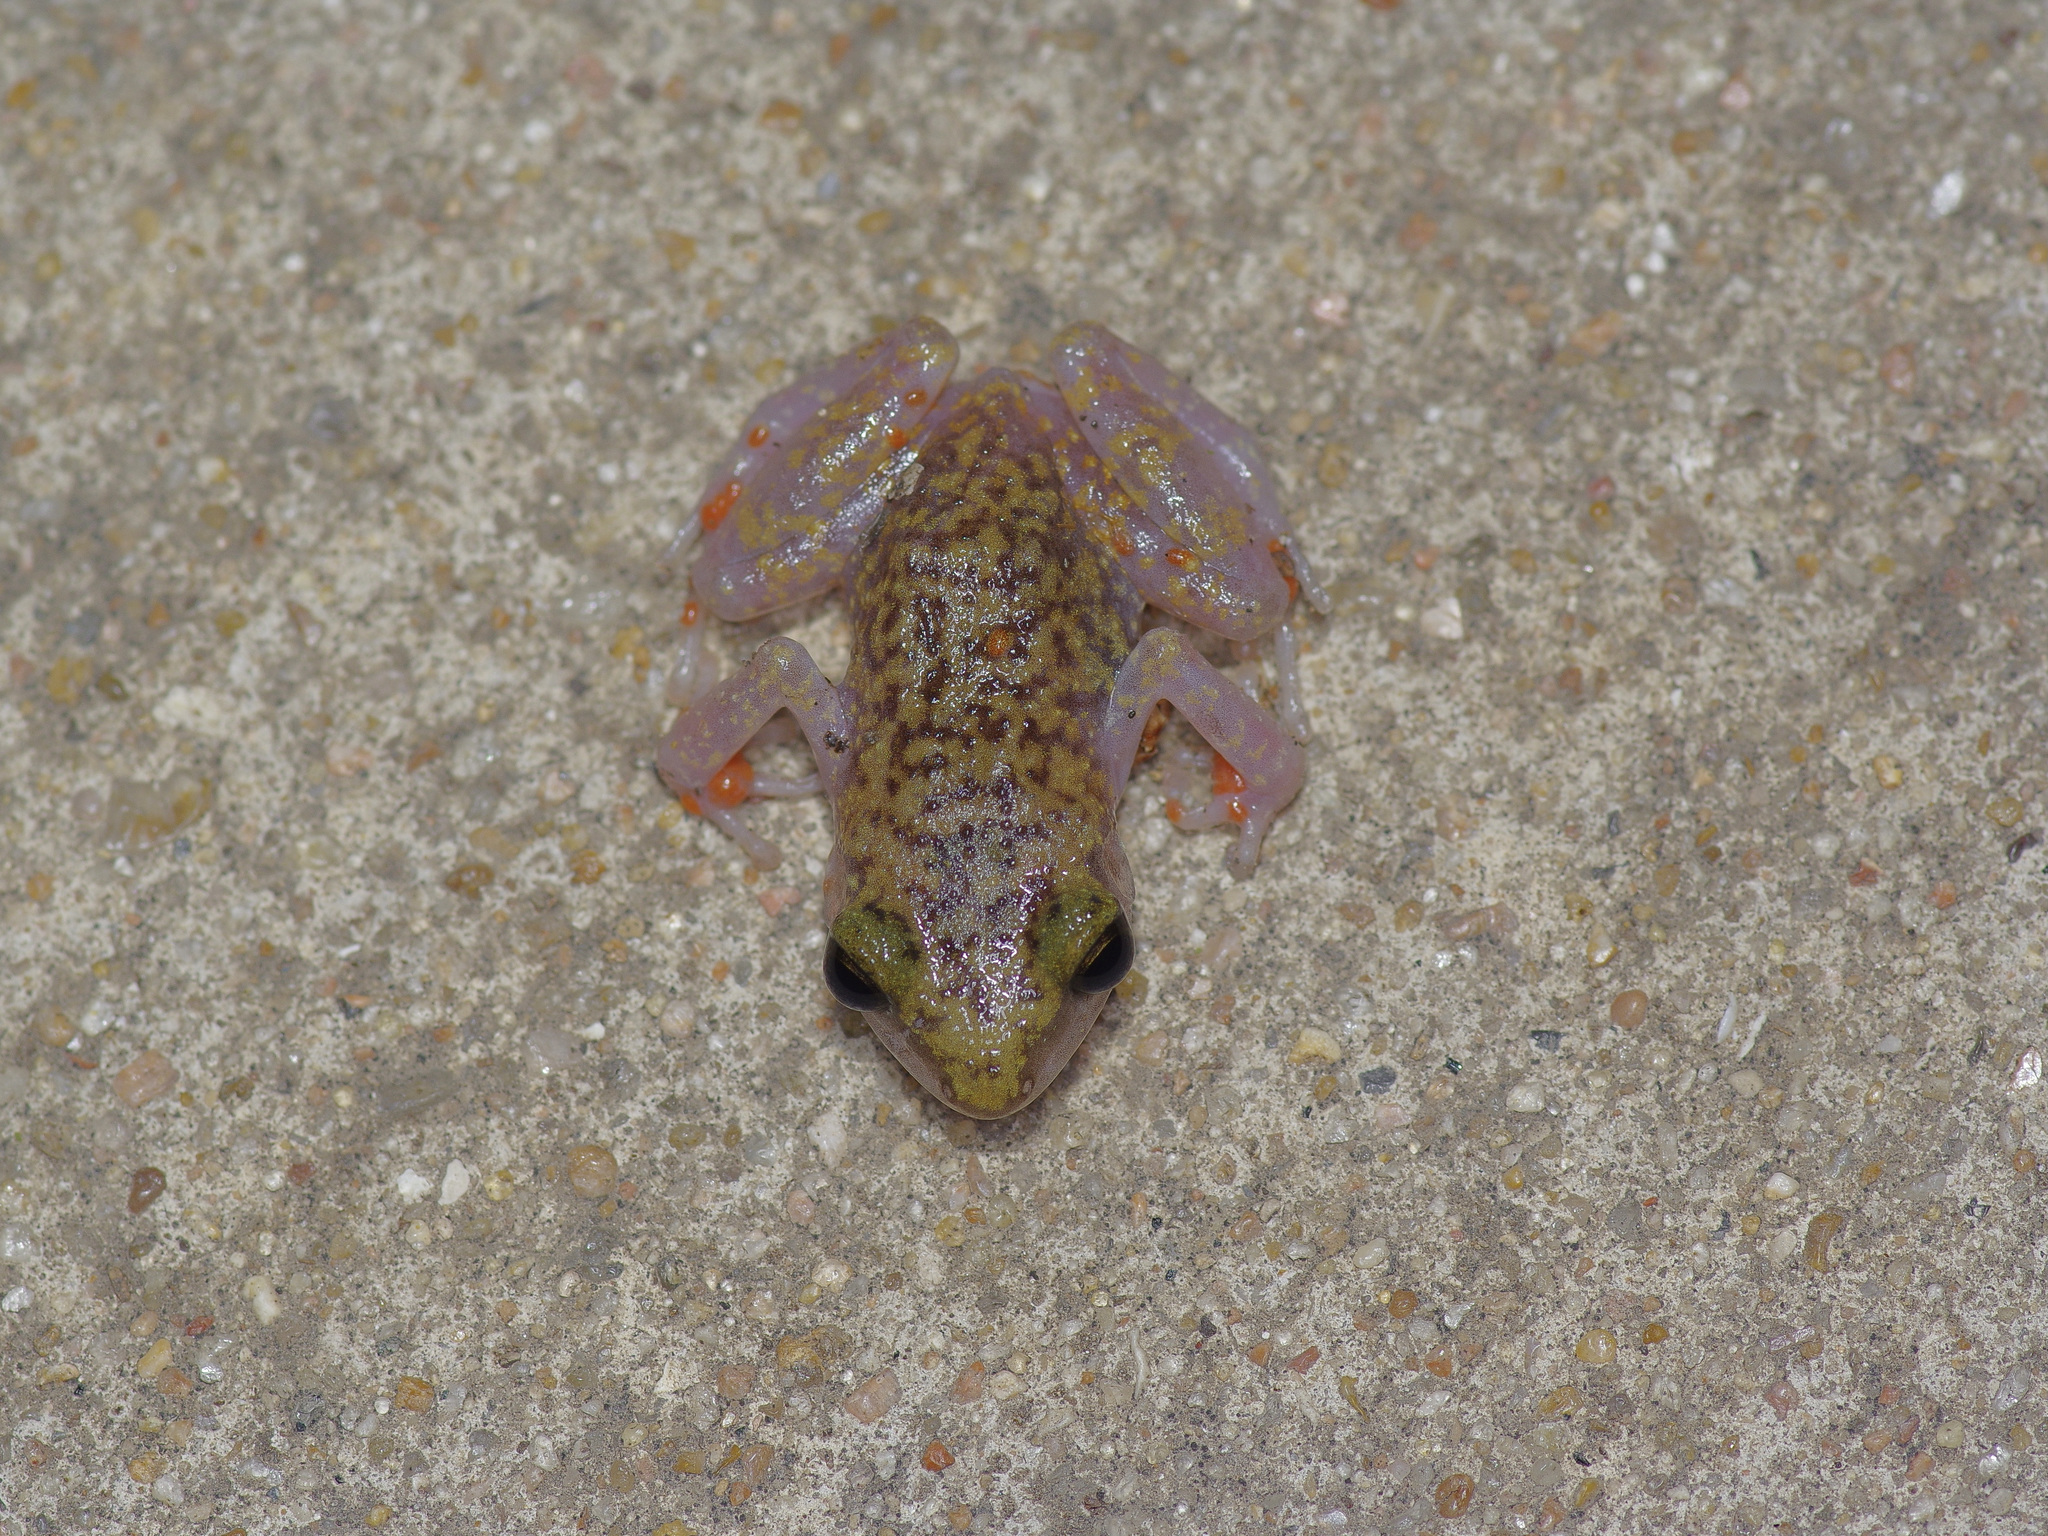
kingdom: Animalia
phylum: Chordata
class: Amphibia
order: Anura
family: Eleutherodactylidae
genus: Eleutherodactylus
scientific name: Eleutherodactylus marnockii
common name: Cliff chirping frog
